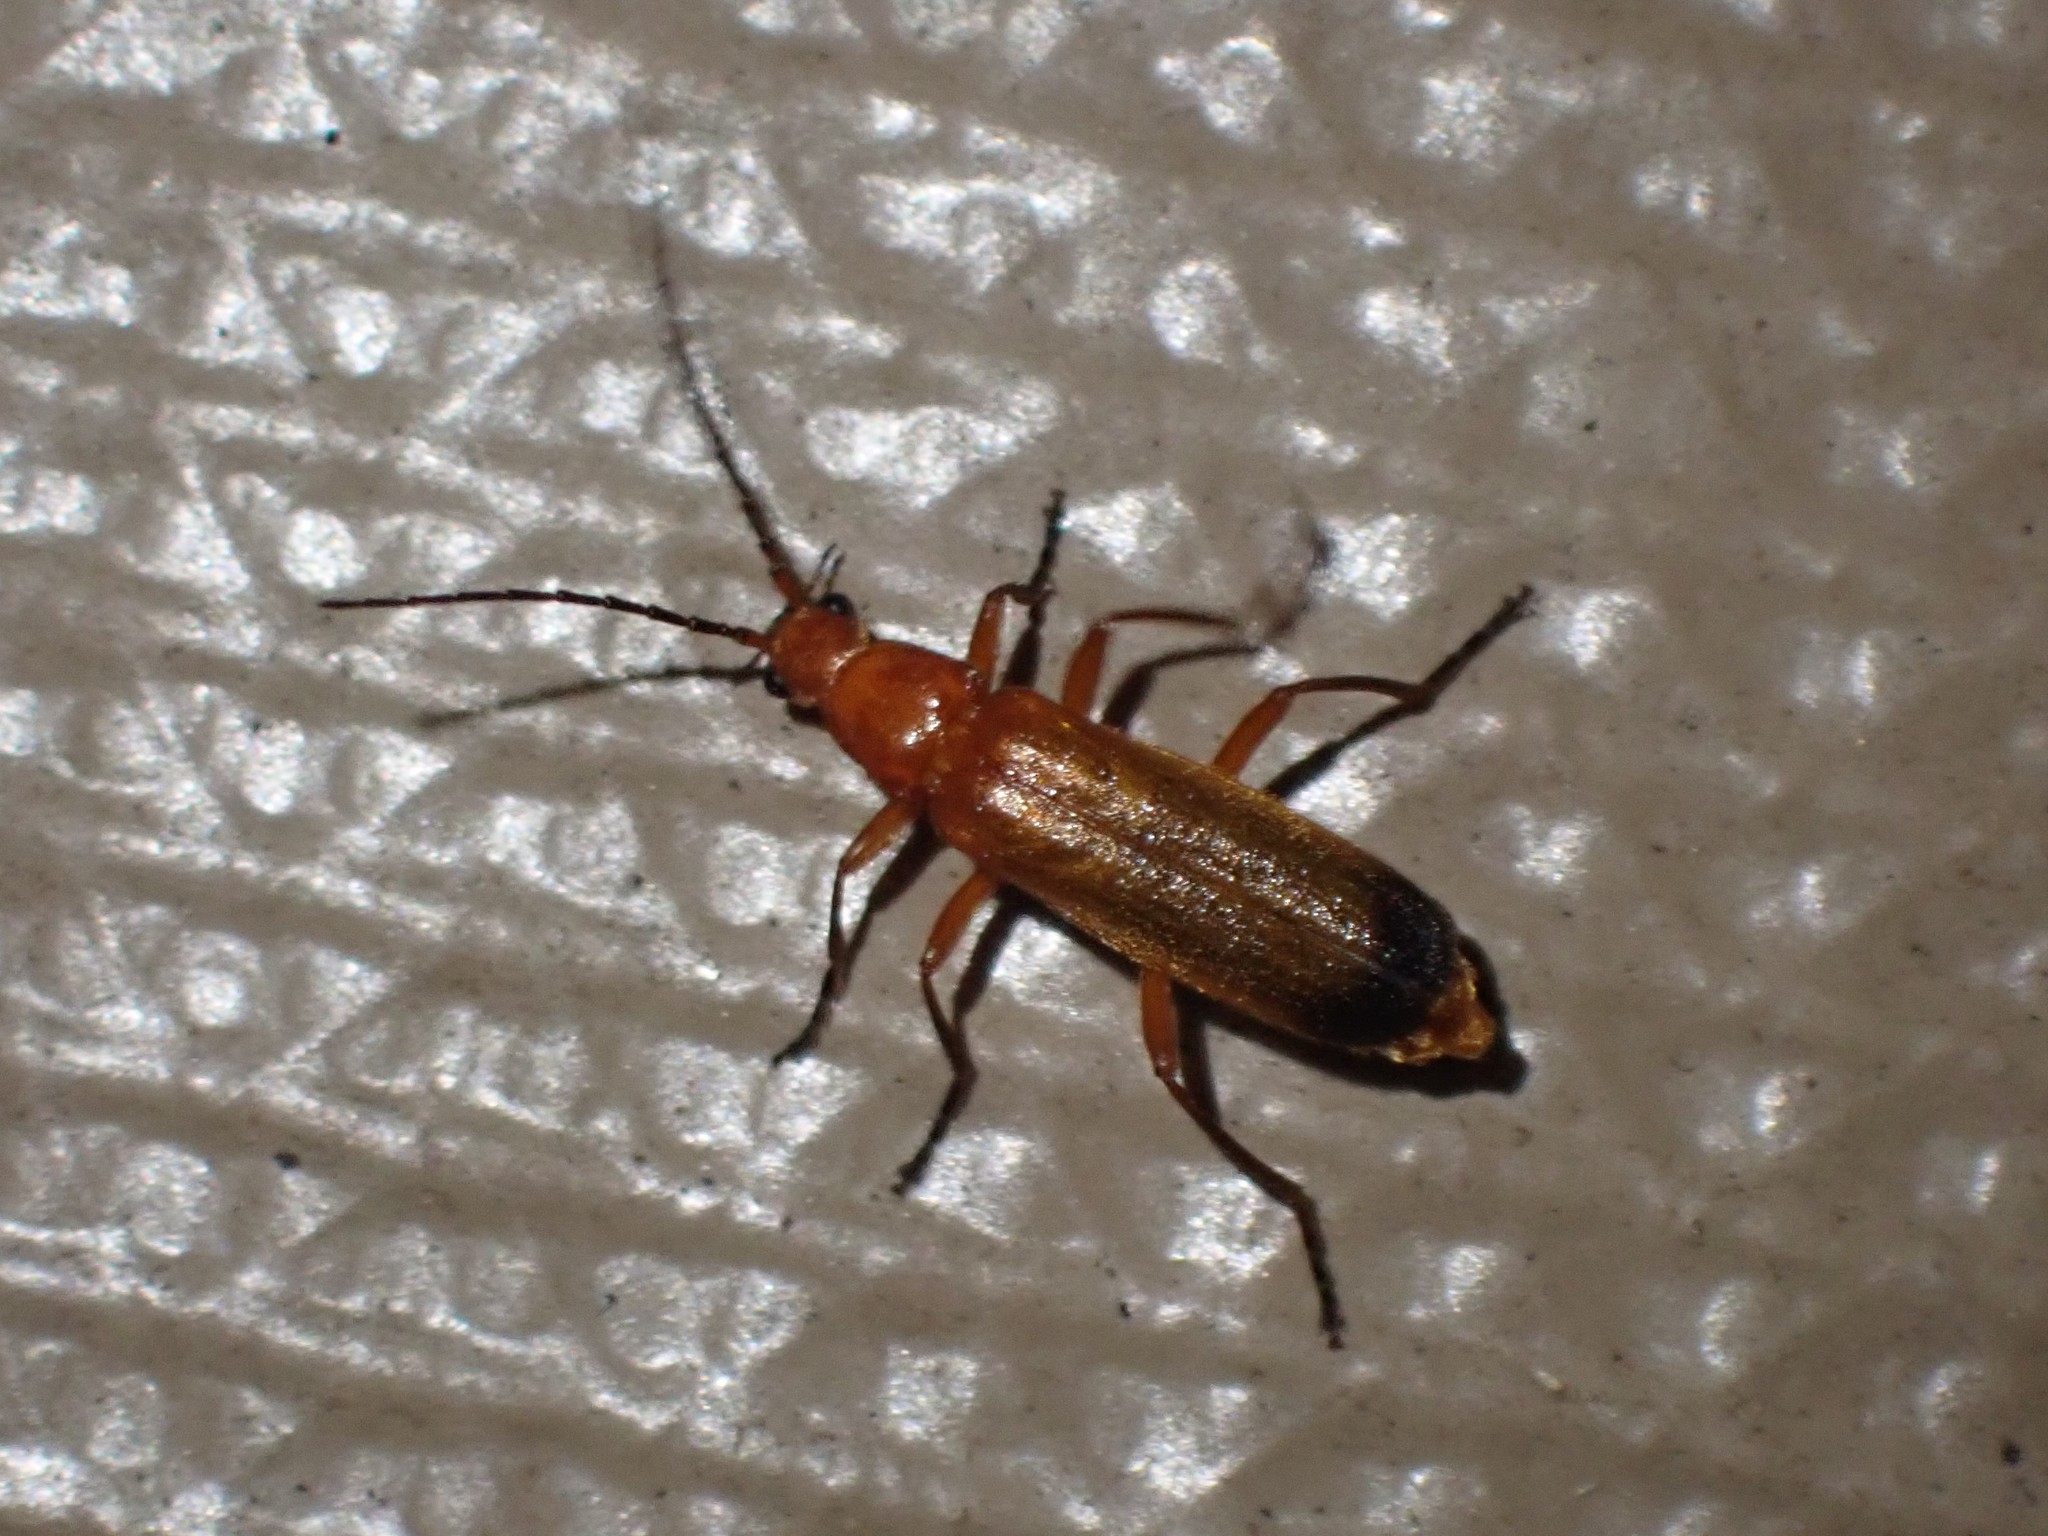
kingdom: Animalia
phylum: Arthropoda
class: Insecta
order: Coleoptera
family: Cantharidae
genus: Rhagonycha
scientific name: Rhagonycha fulva
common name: Common red soldier beetle
